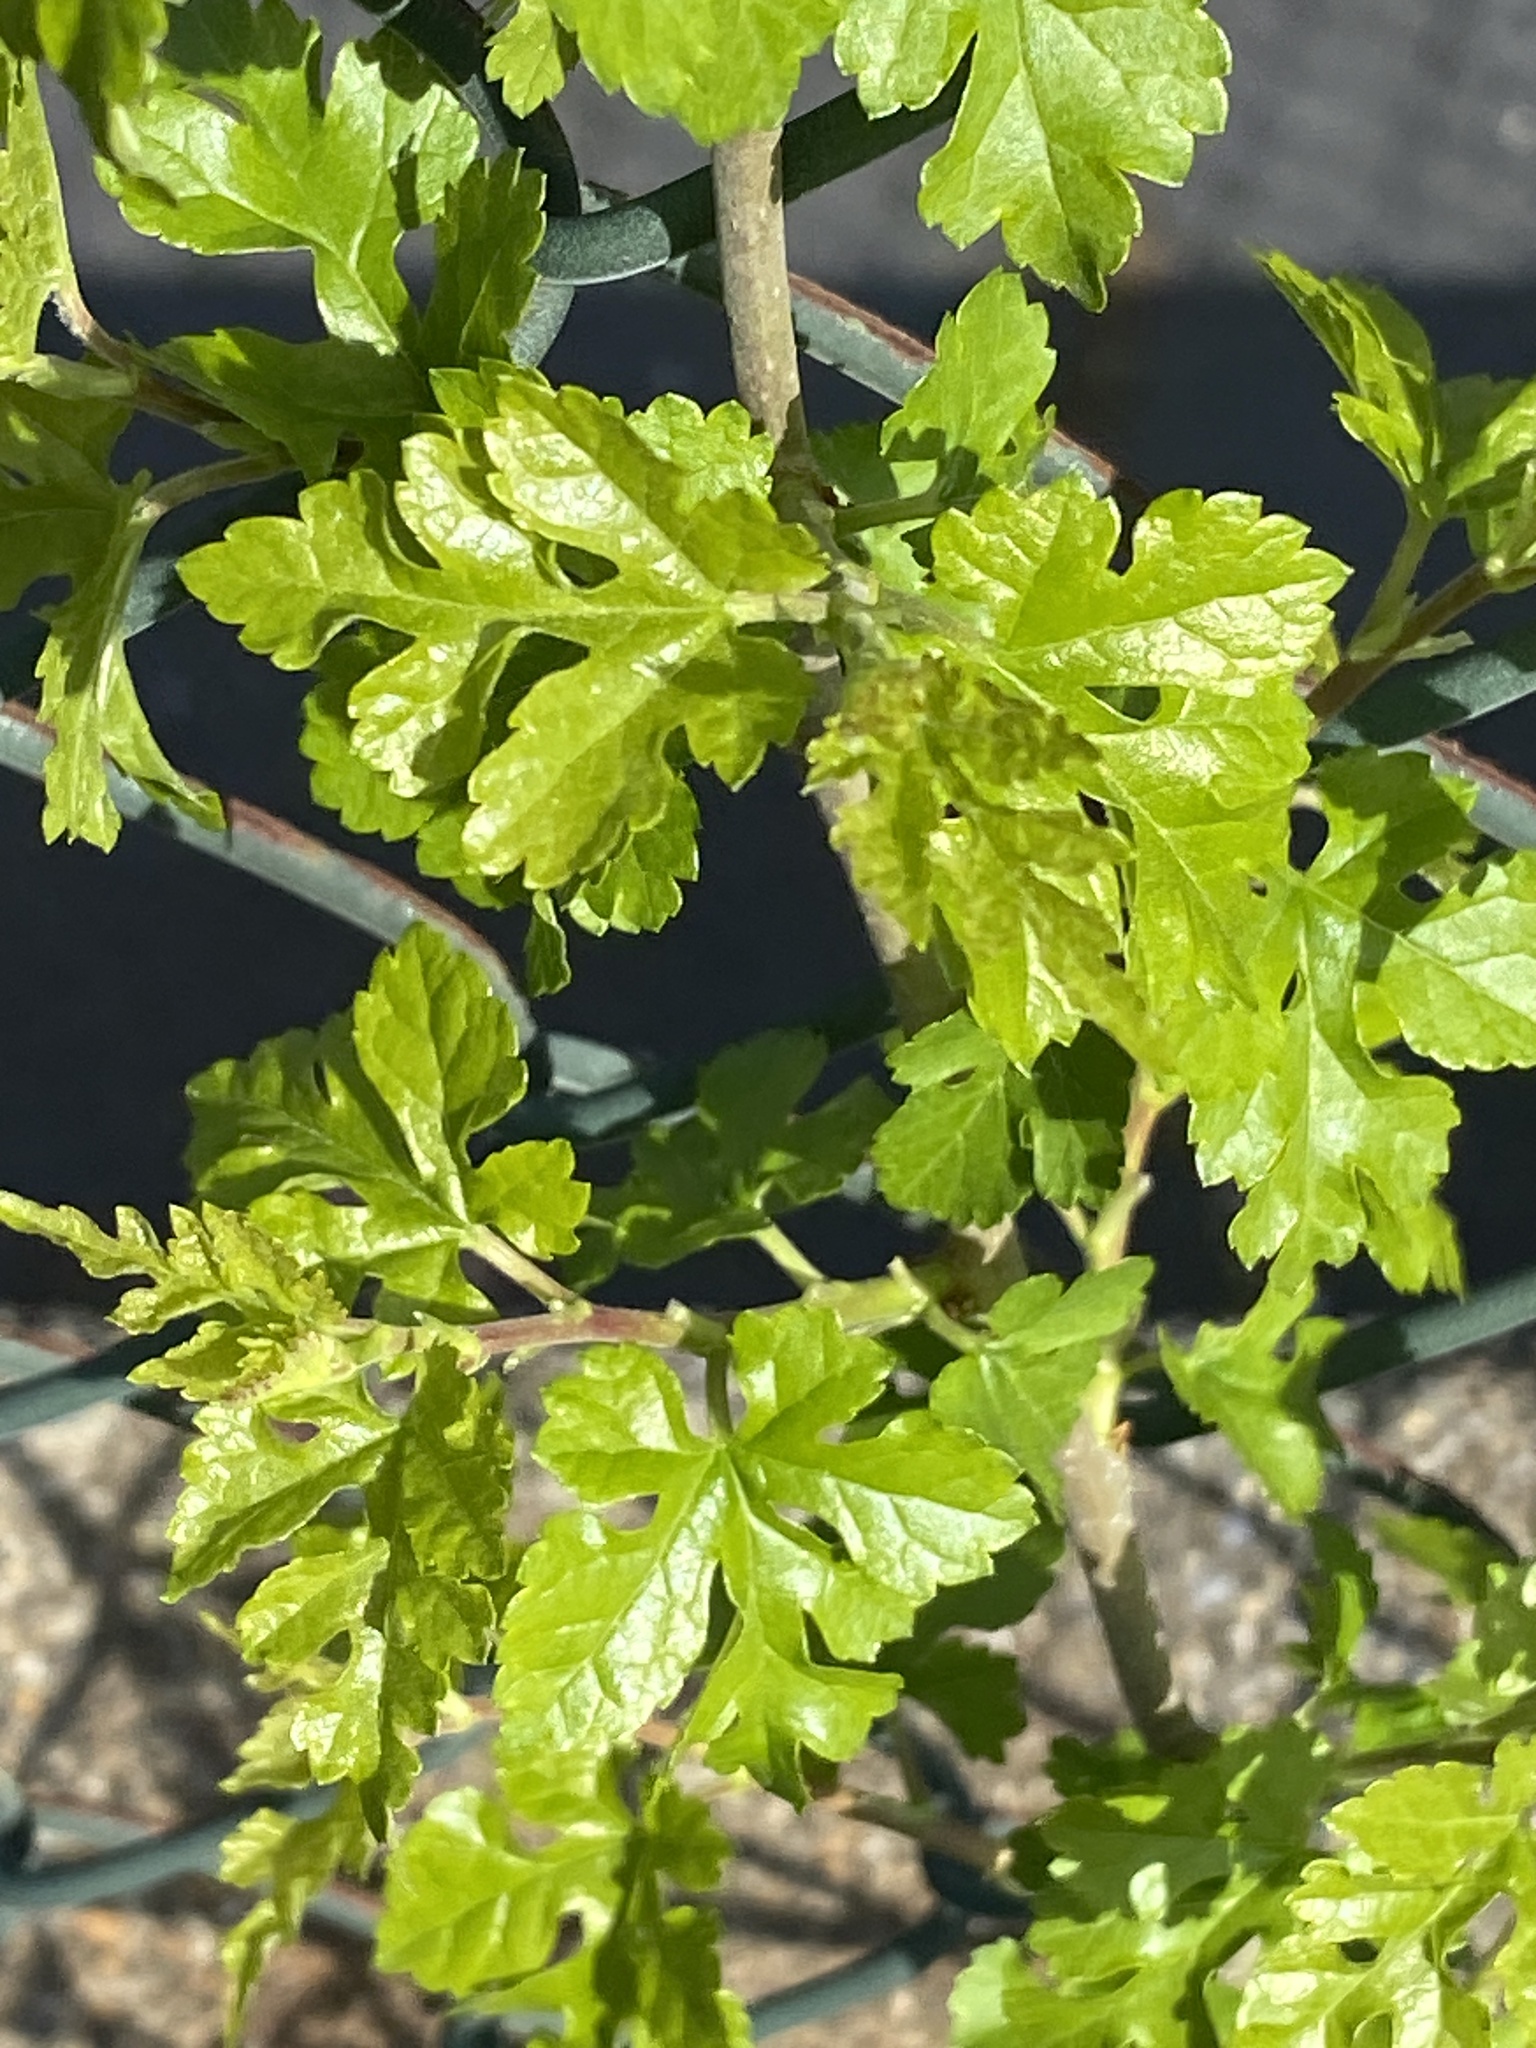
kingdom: Plantae
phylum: Tracheophyta
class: Magnoliopsida
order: Rosales
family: Moraceae
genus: Morus
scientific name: Morus alba
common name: White mulberry
